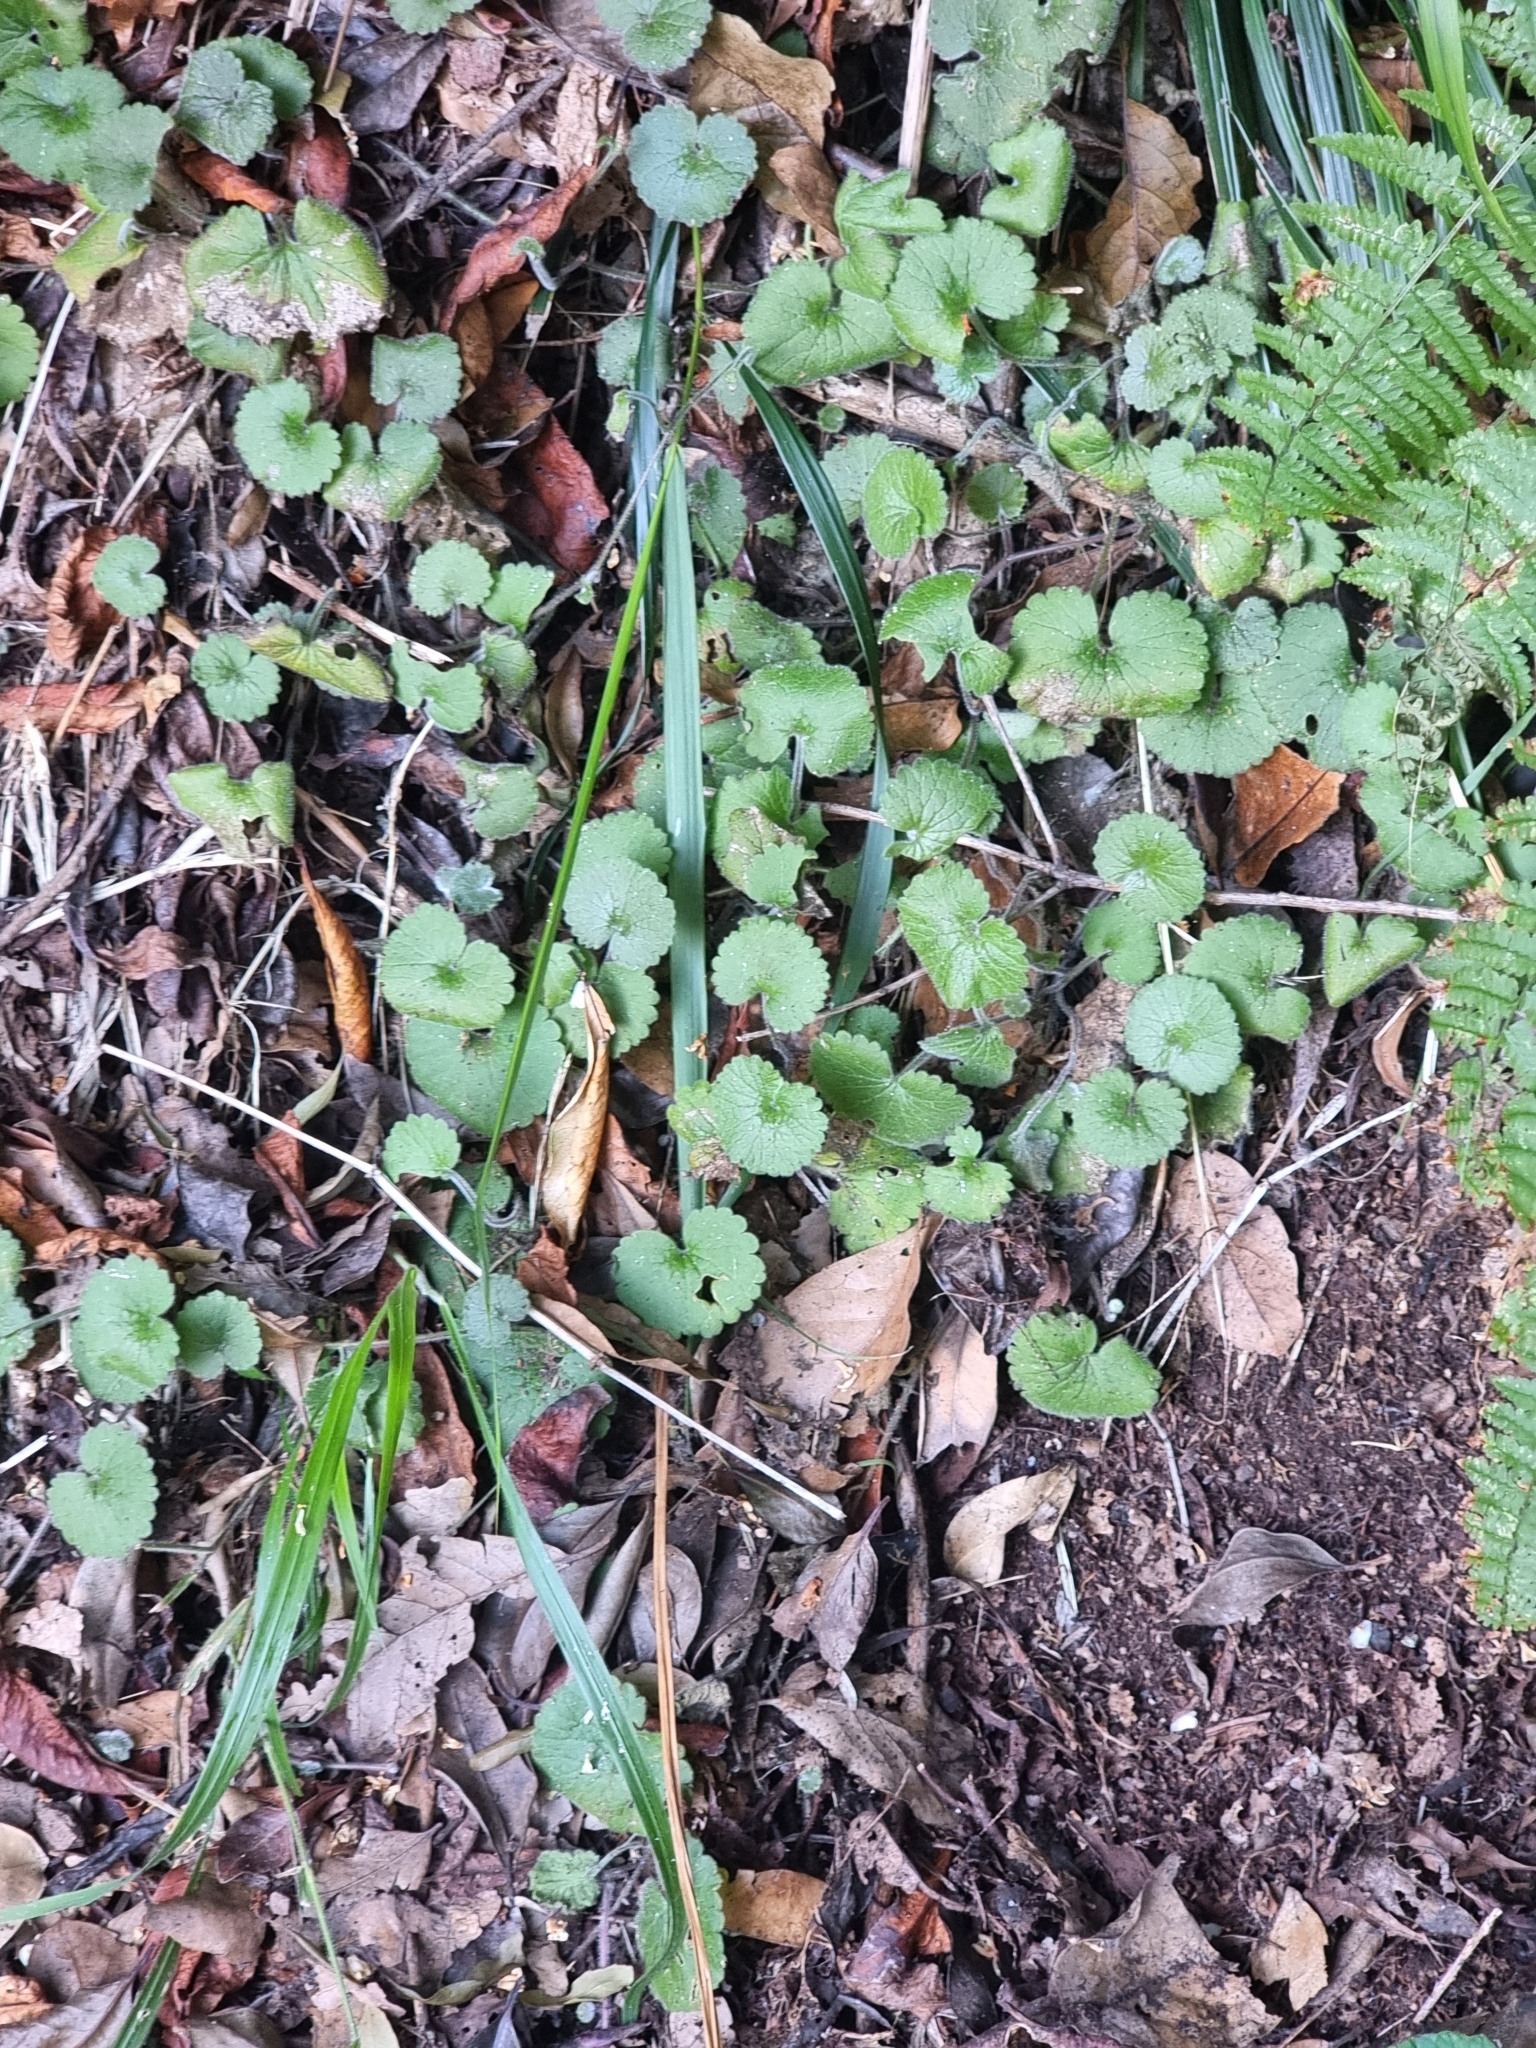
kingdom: Plantae
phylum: Tracheophyta
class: Magnoliopsida
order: Lamiales
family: Plantaginaceae
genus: Sibthorpia
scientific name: Sibthorpia peregrina
